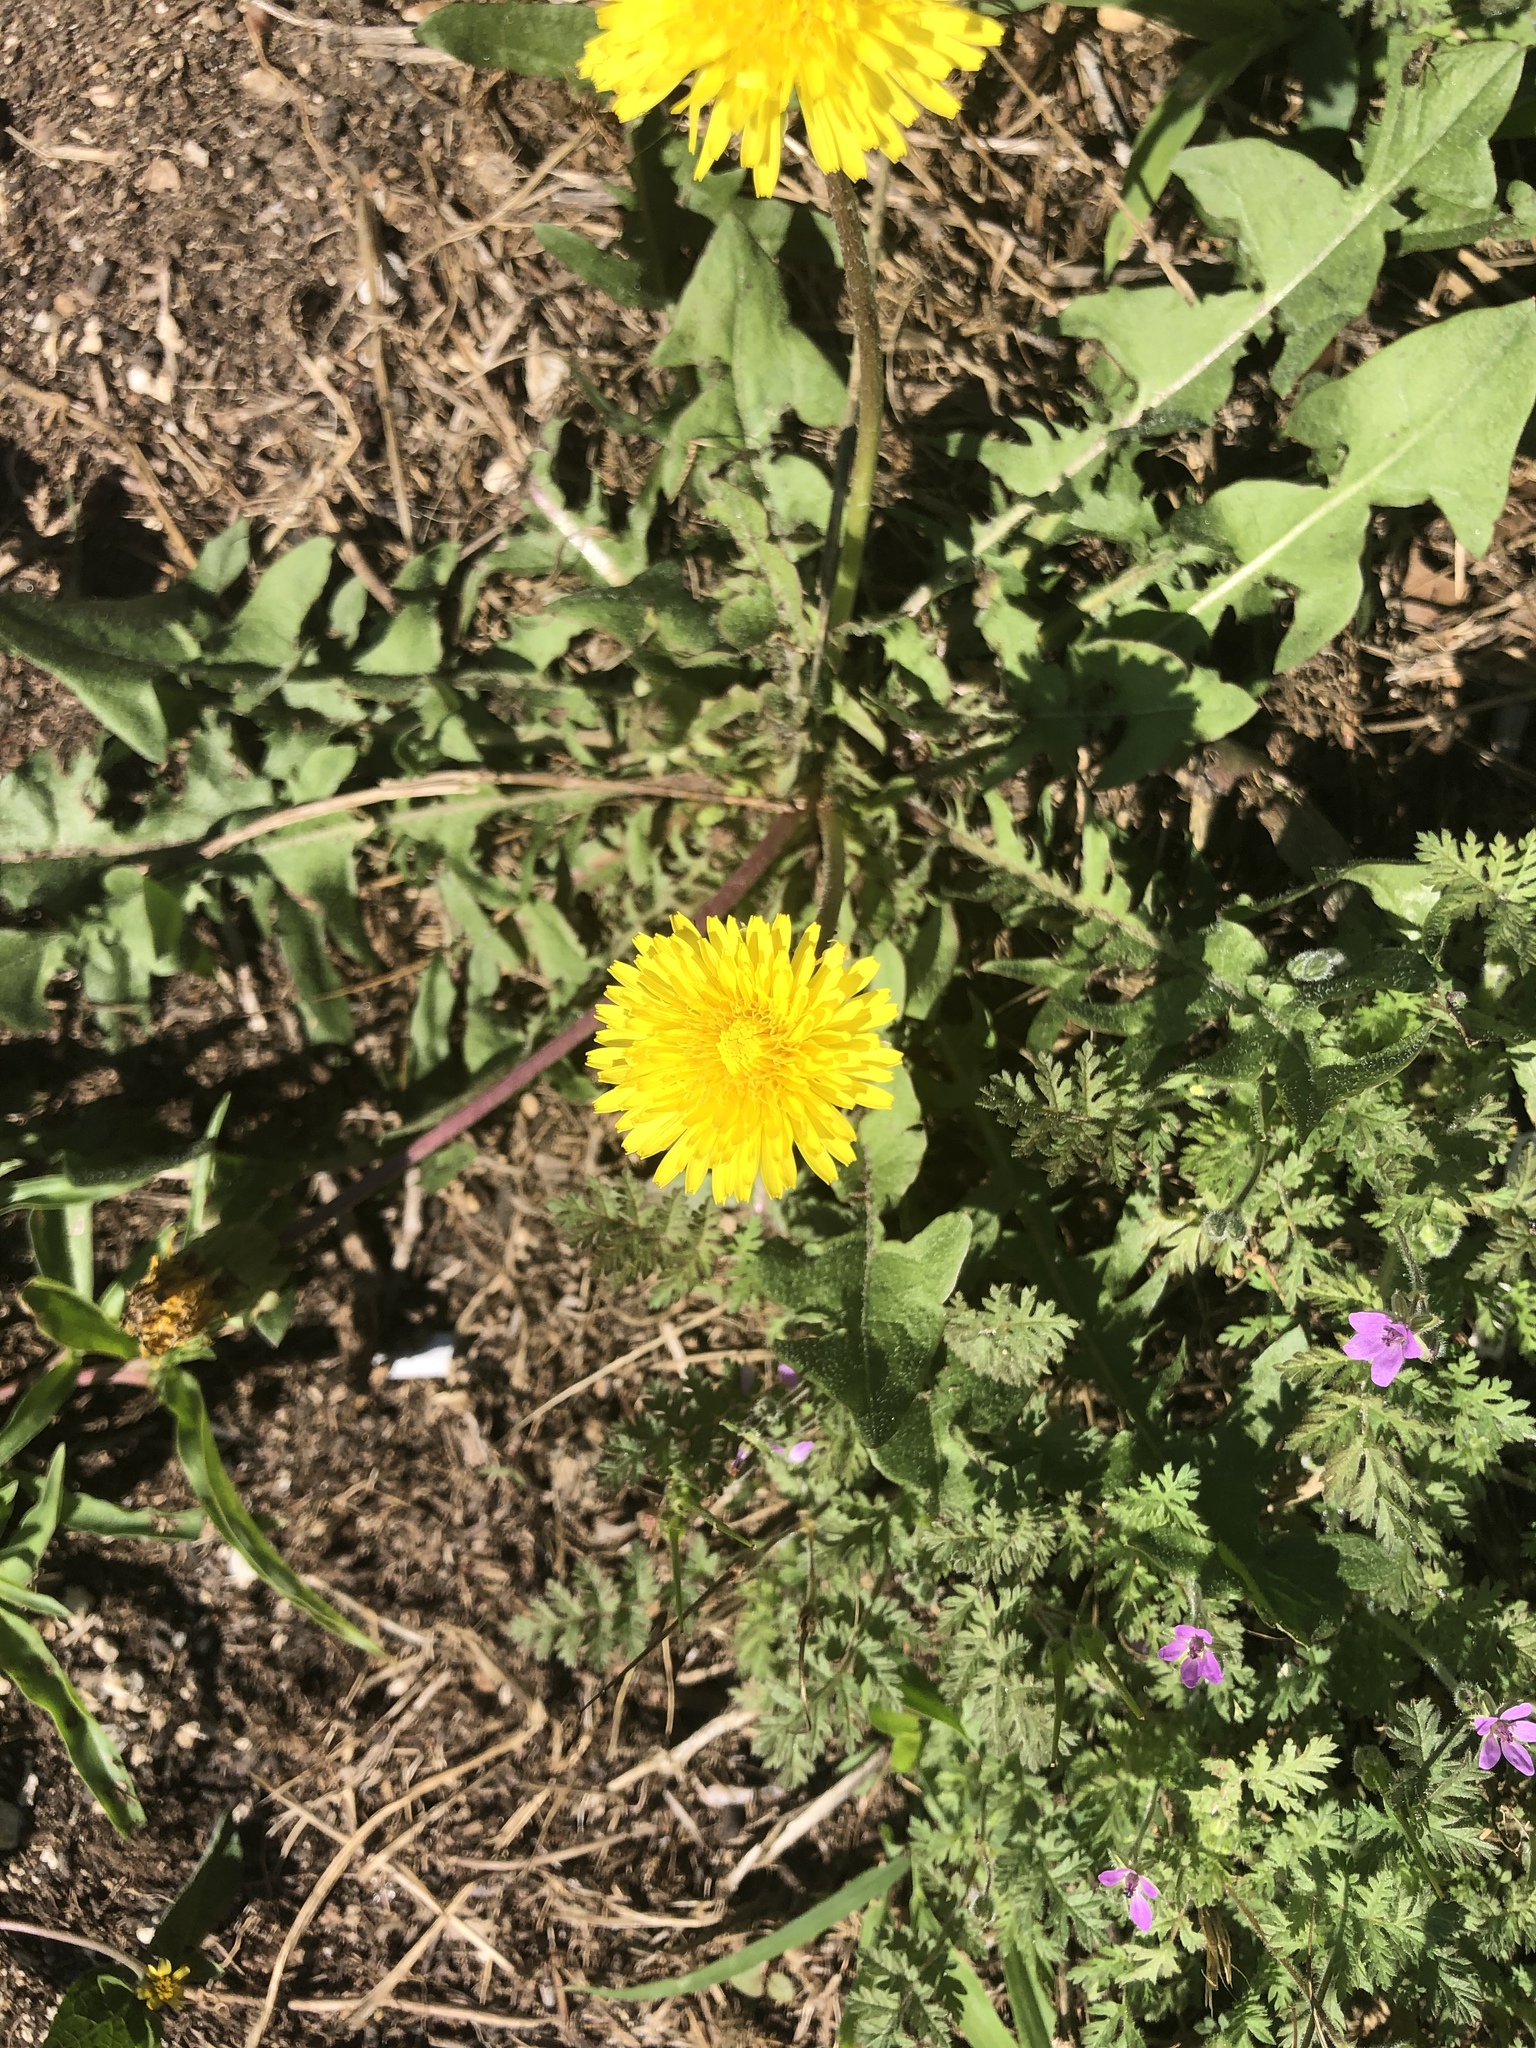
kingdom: Plantae
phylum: Tracheophyta
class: Magnoliopsida
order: Asterales
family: Asteraceae
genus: Taraxacum
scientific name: Taraxacum officinale
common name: Common dandelion
